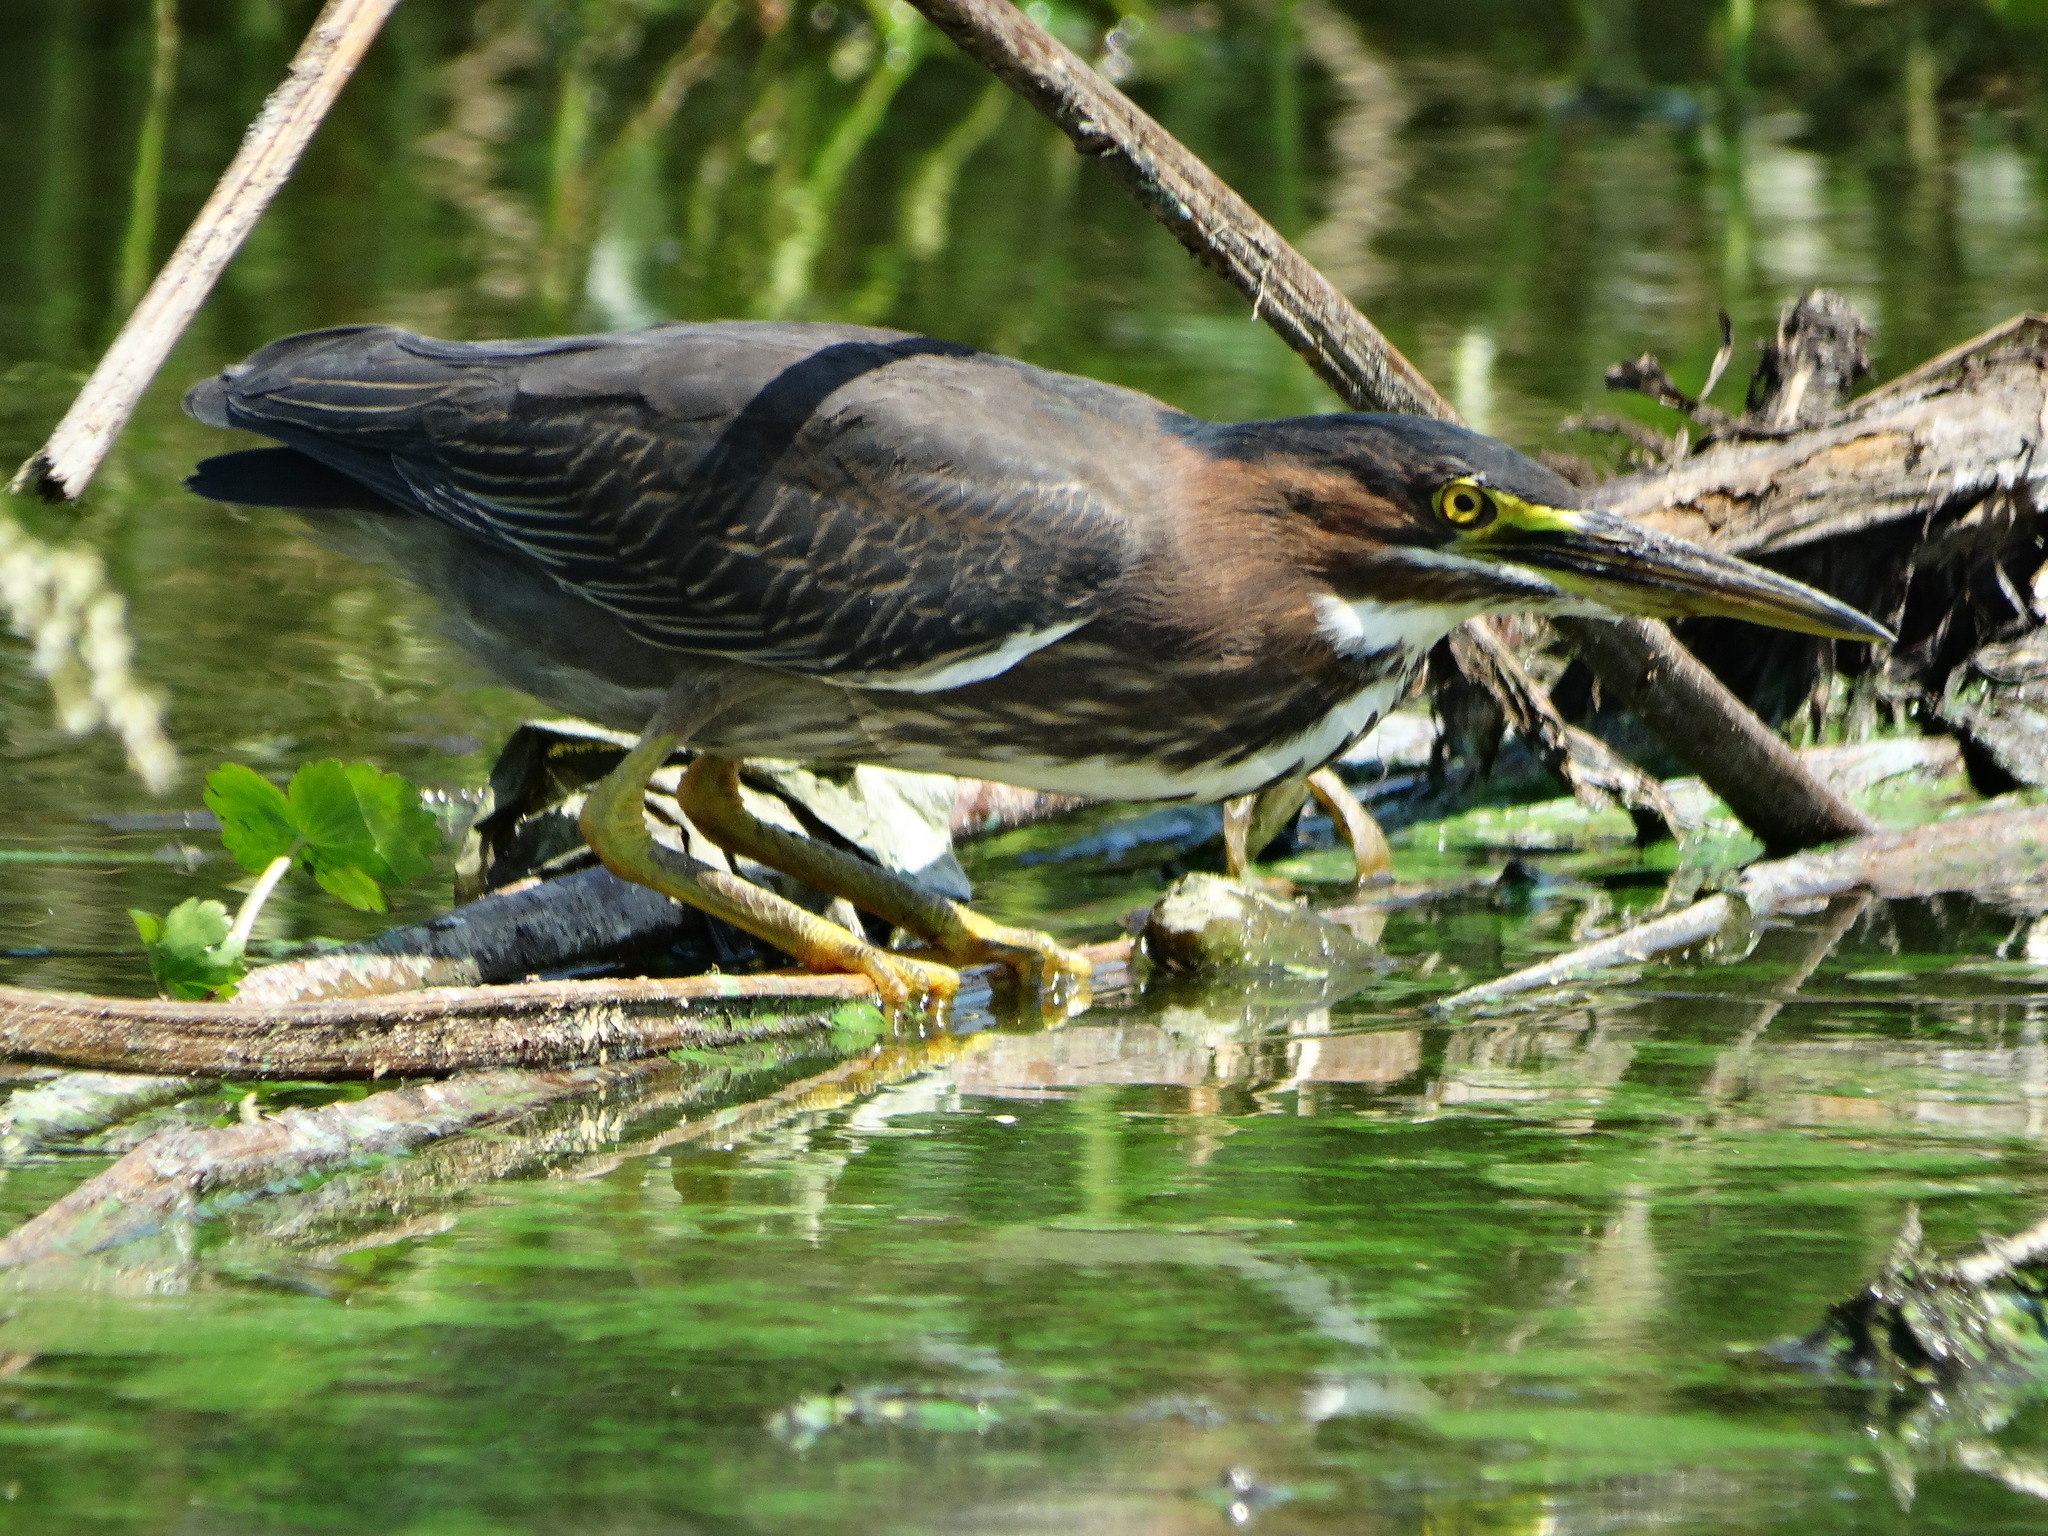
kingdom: Animalia
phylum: Chordata
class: Aves
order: Pelecaniformes
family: Ardeidae
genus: Butorides
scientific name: Butorides virescens
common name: Green heron
